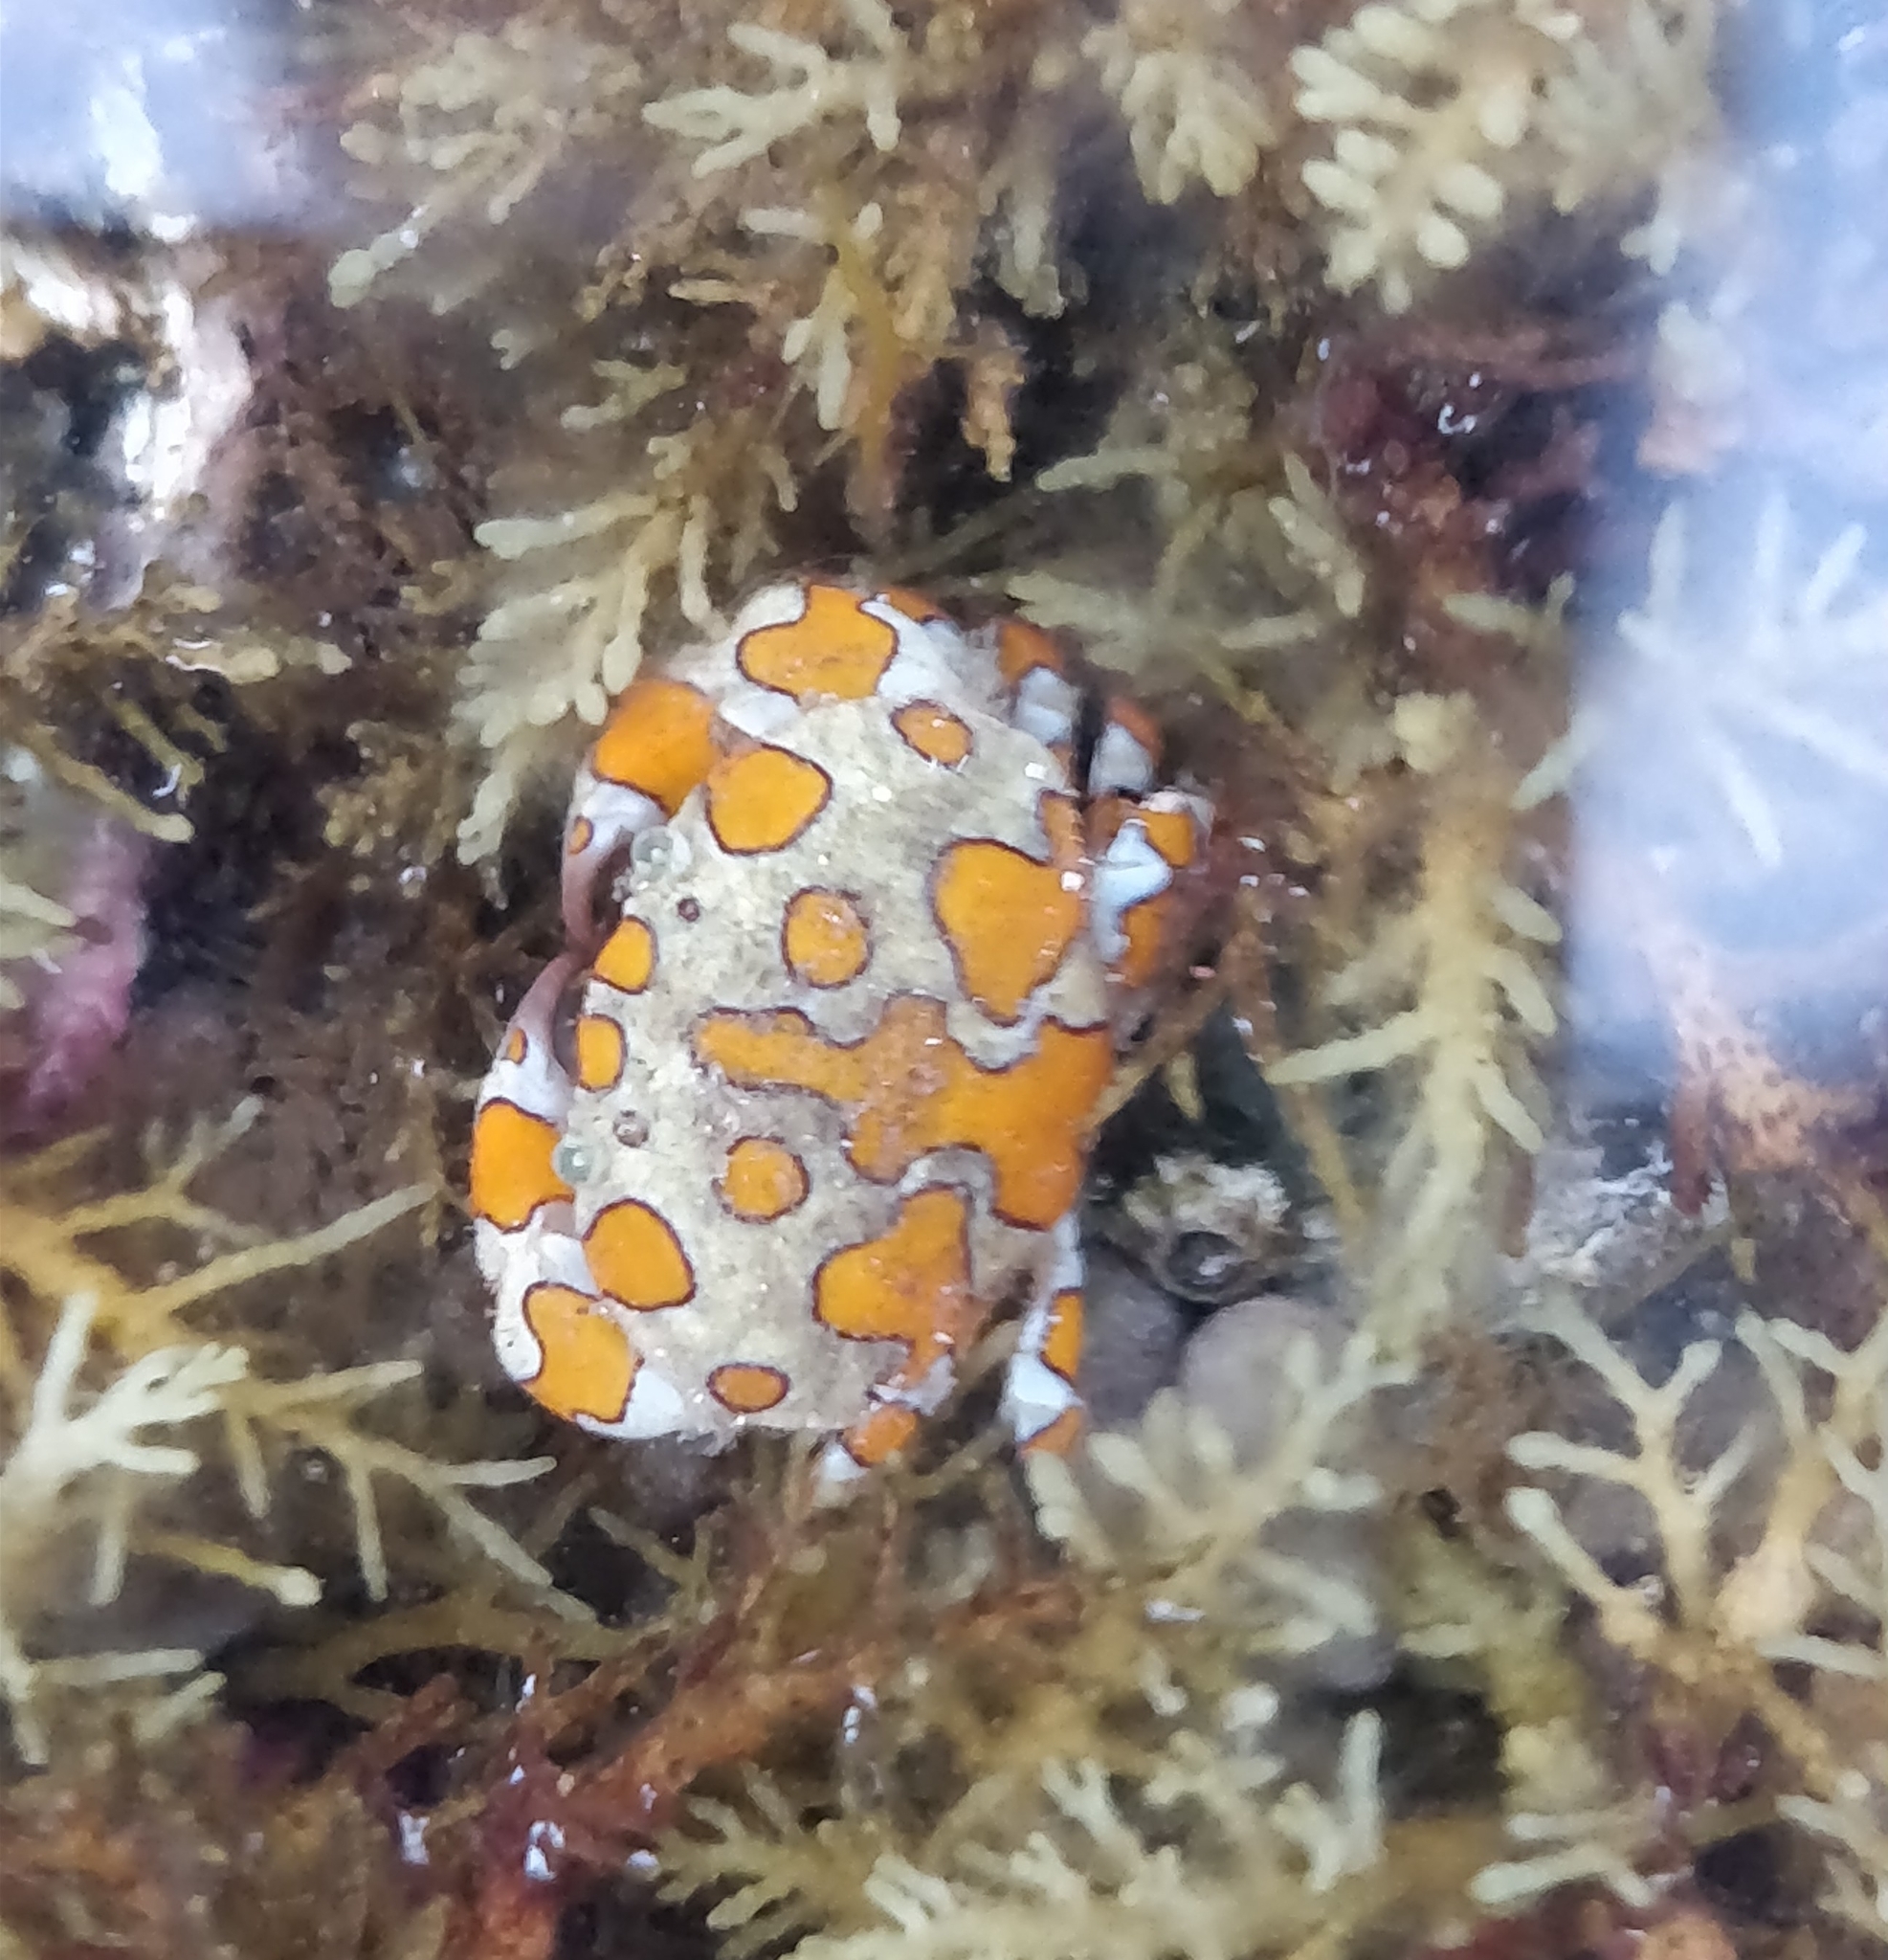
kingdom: Animalia
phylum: Arthropoda
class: Malacostraca
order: Decapoda
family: Xanthidae
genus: Platypodiella
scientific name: Platypodiella picta
